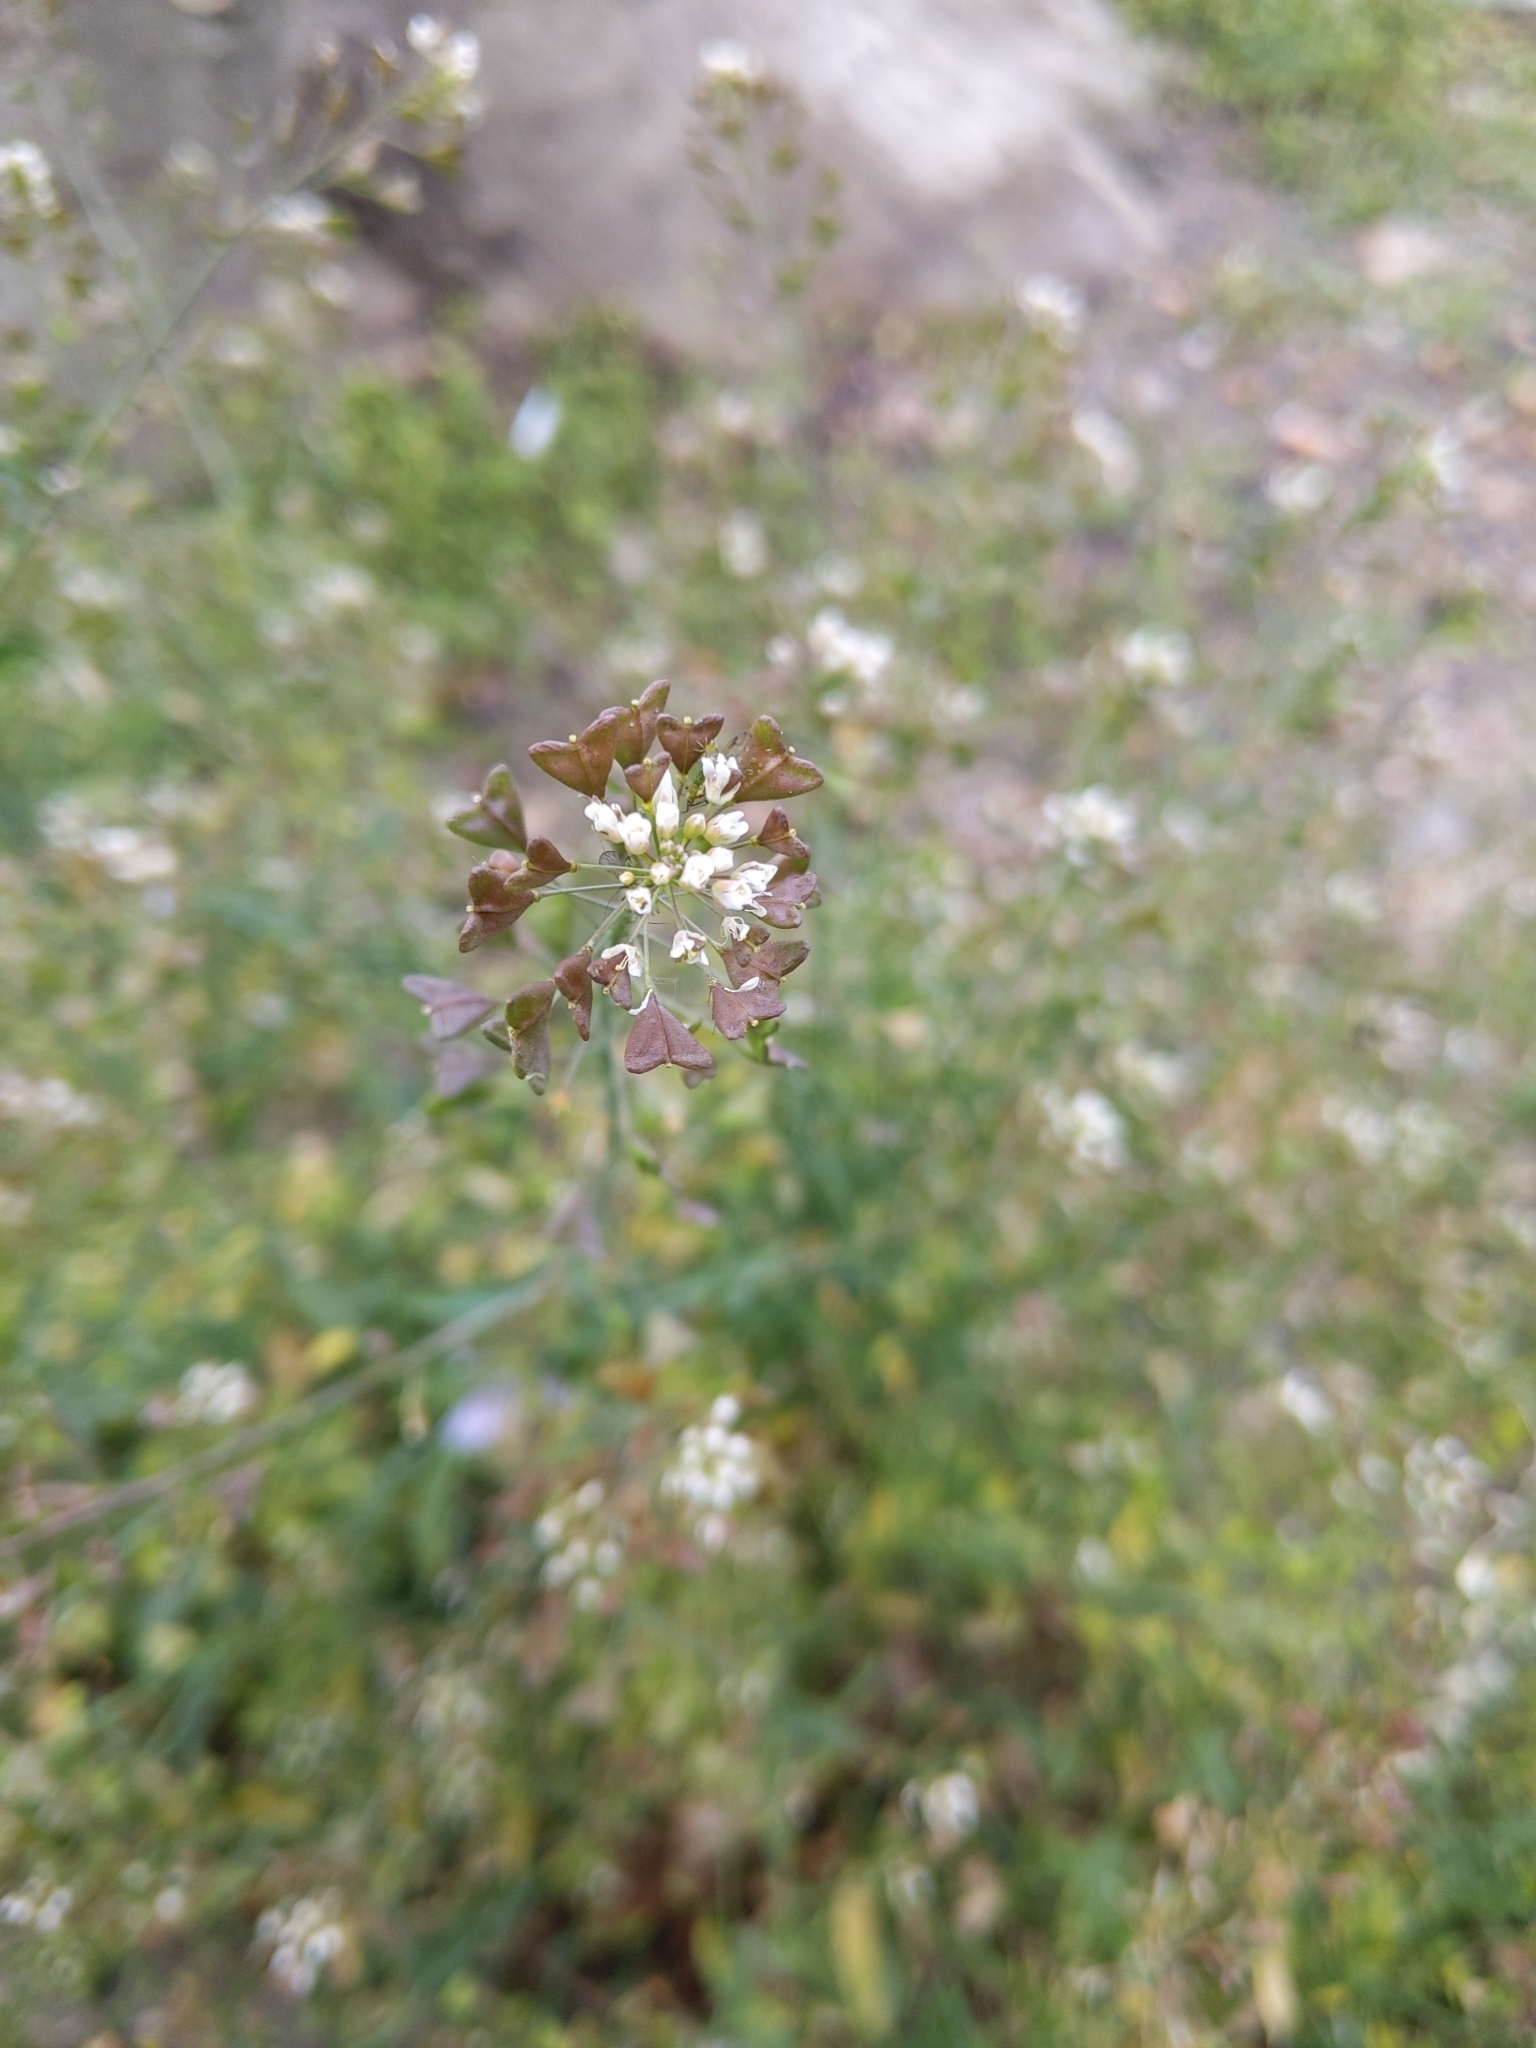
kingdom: Plantae
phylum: Tracheophyta
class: Magnoliopsida
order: Brassicales
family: Brassicaceae
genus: Capsella
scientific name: Capsella bursa-pastoris
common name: Shepherd's purse
